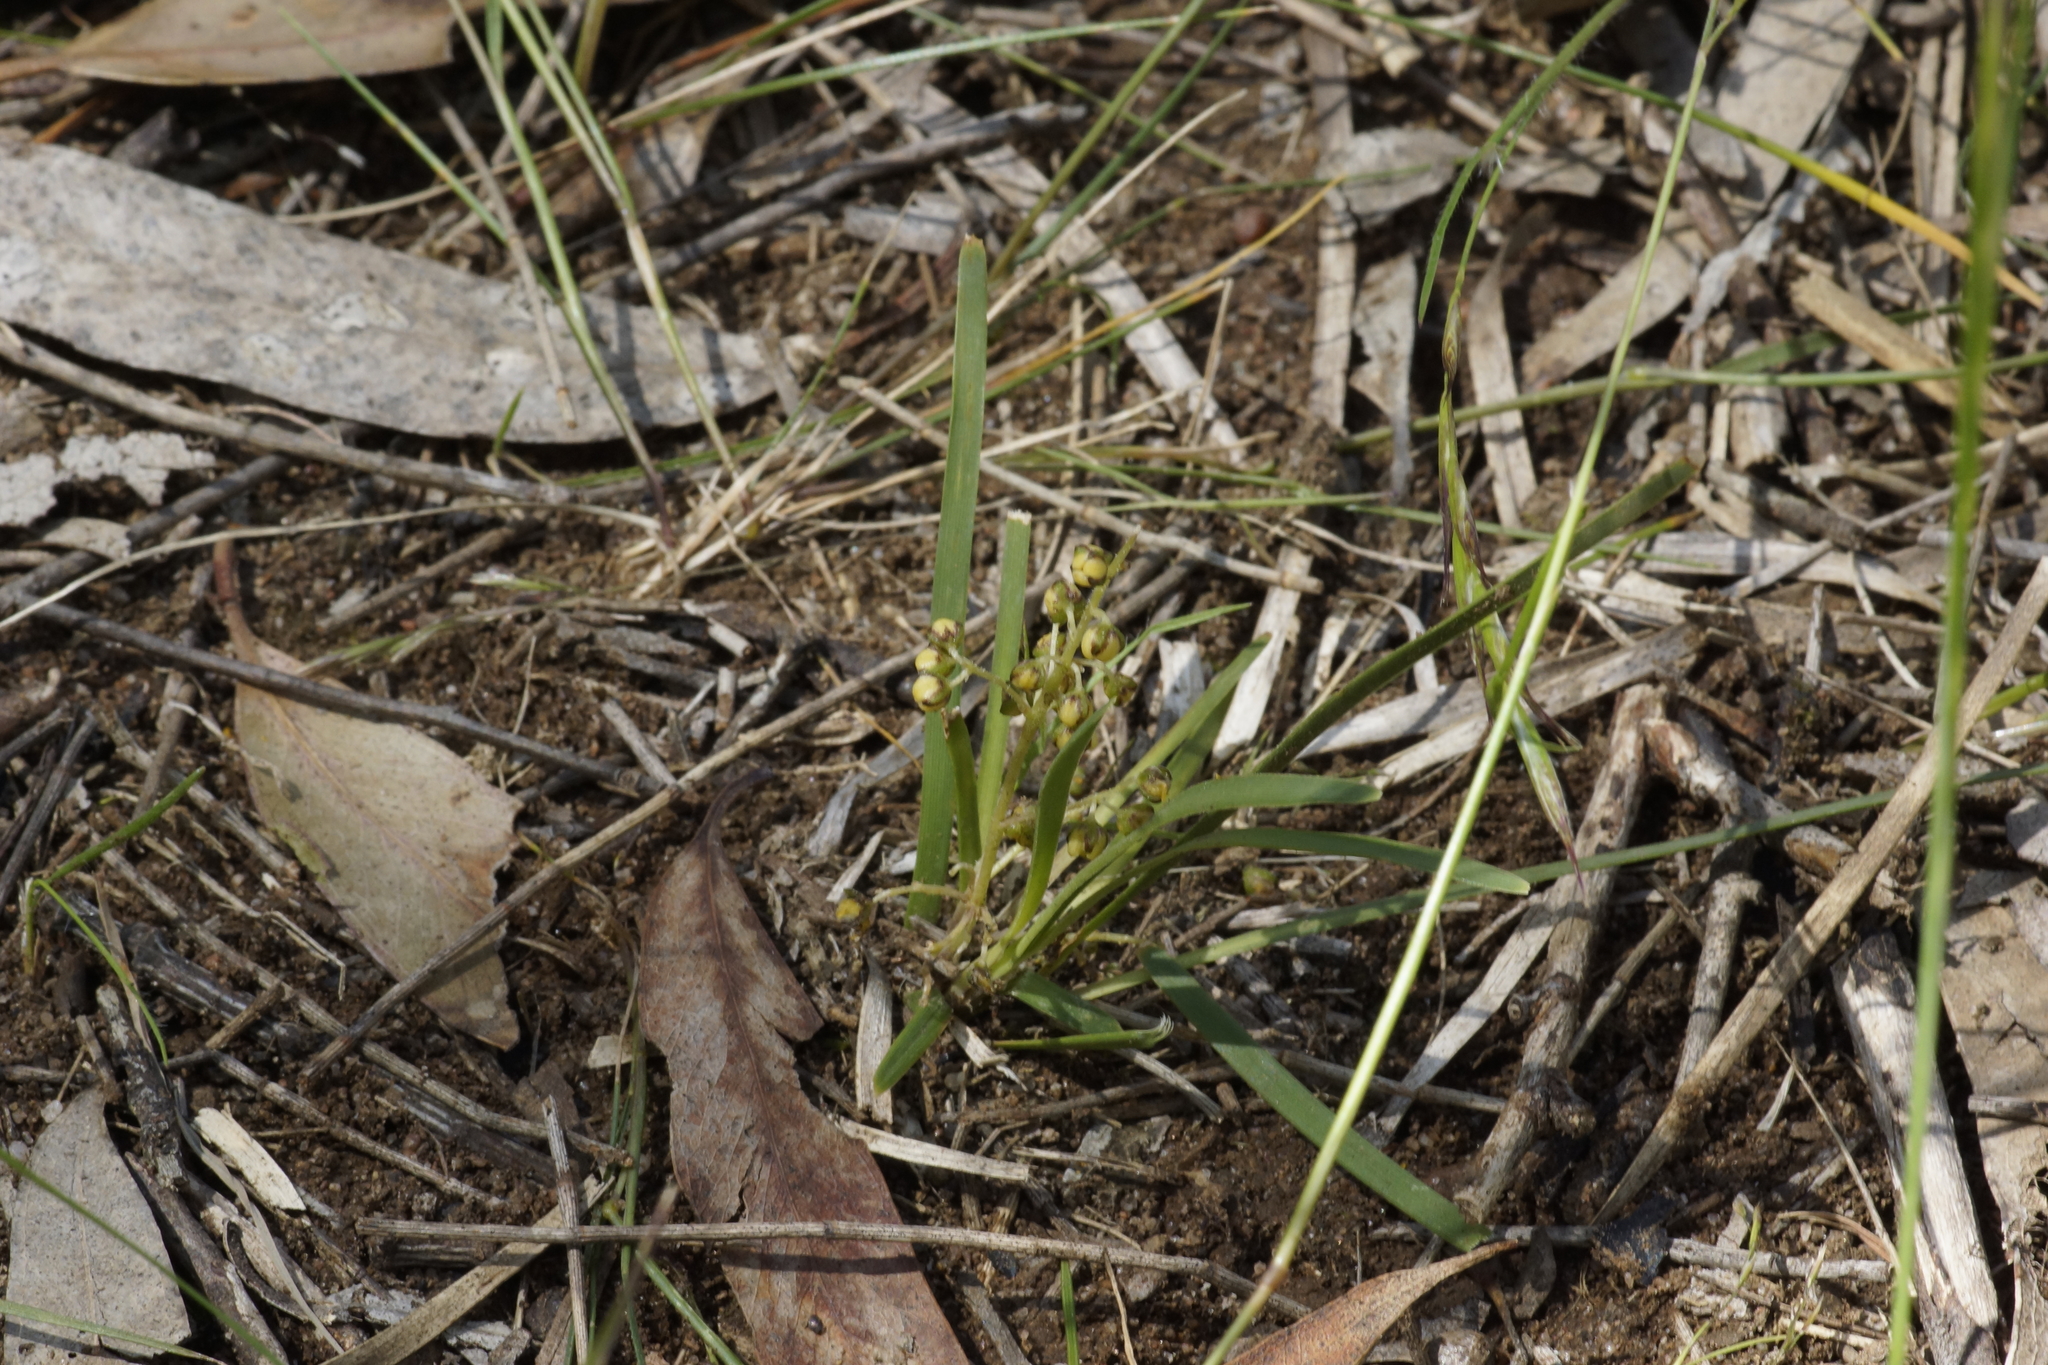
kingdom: Plantae
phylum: Tracheophyta
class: Liliopsida
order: Asparagales
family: Asparagaceae
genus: Lomandra
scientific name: Lomandra filiformis
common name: Wattle mat-rush
